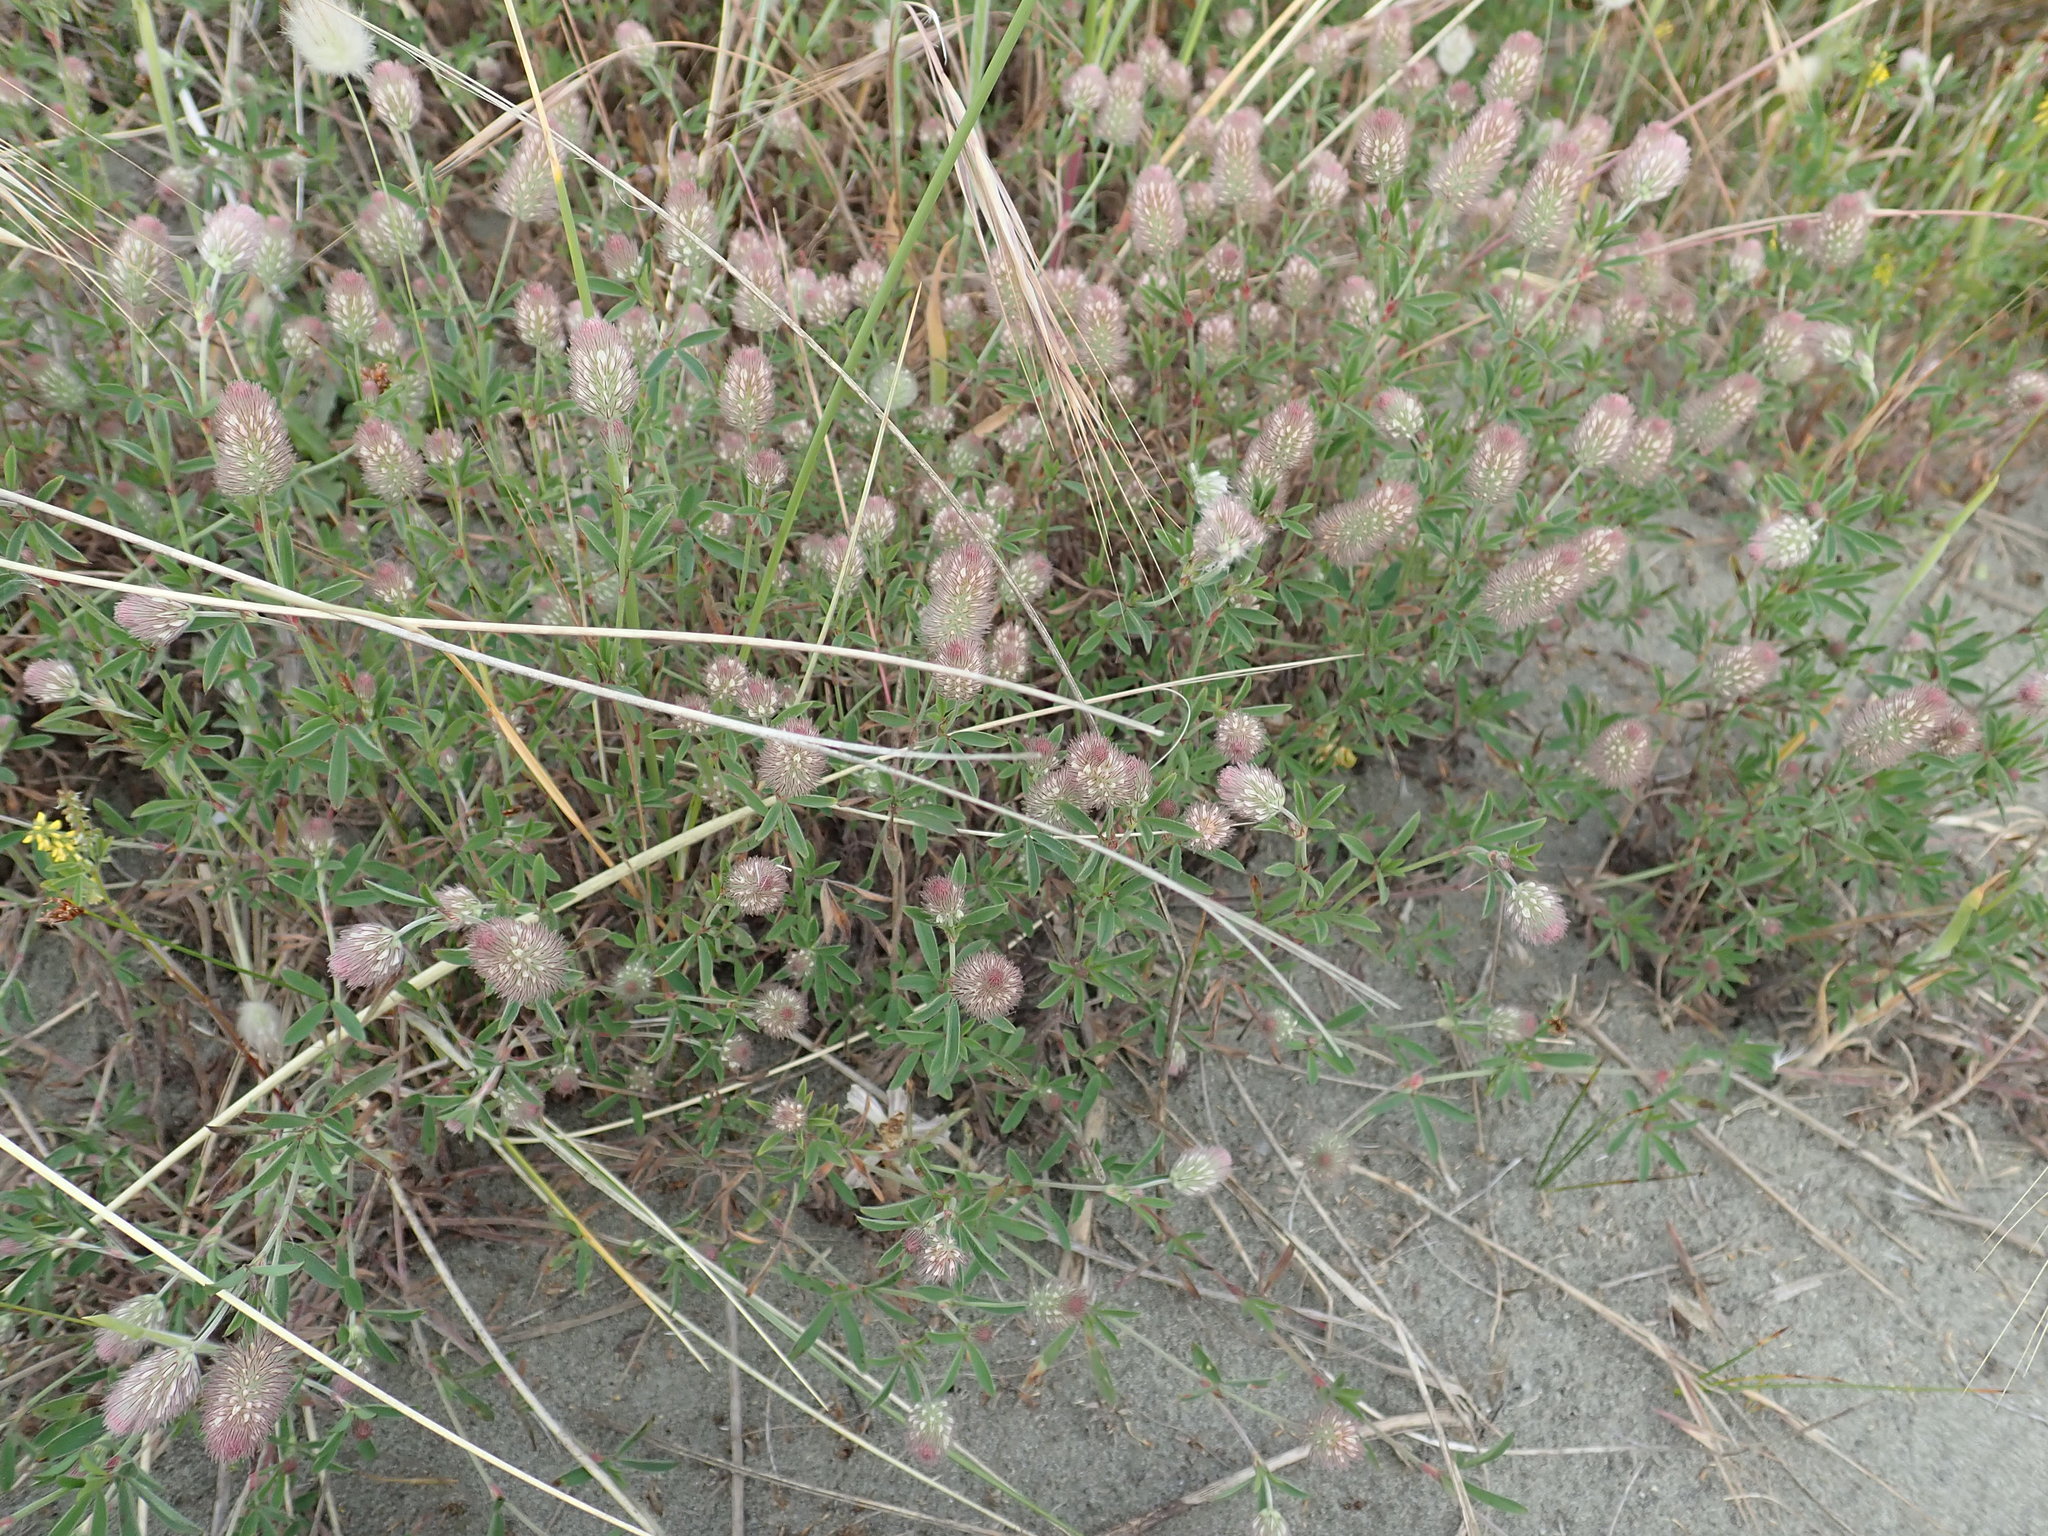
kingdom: Plantae
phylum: Tracheophyta
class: Magnoliopsida
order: Fabales
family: Fabaceae
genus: Trifolium
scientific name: Trifolium arvense
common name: Hare's-foot clover
